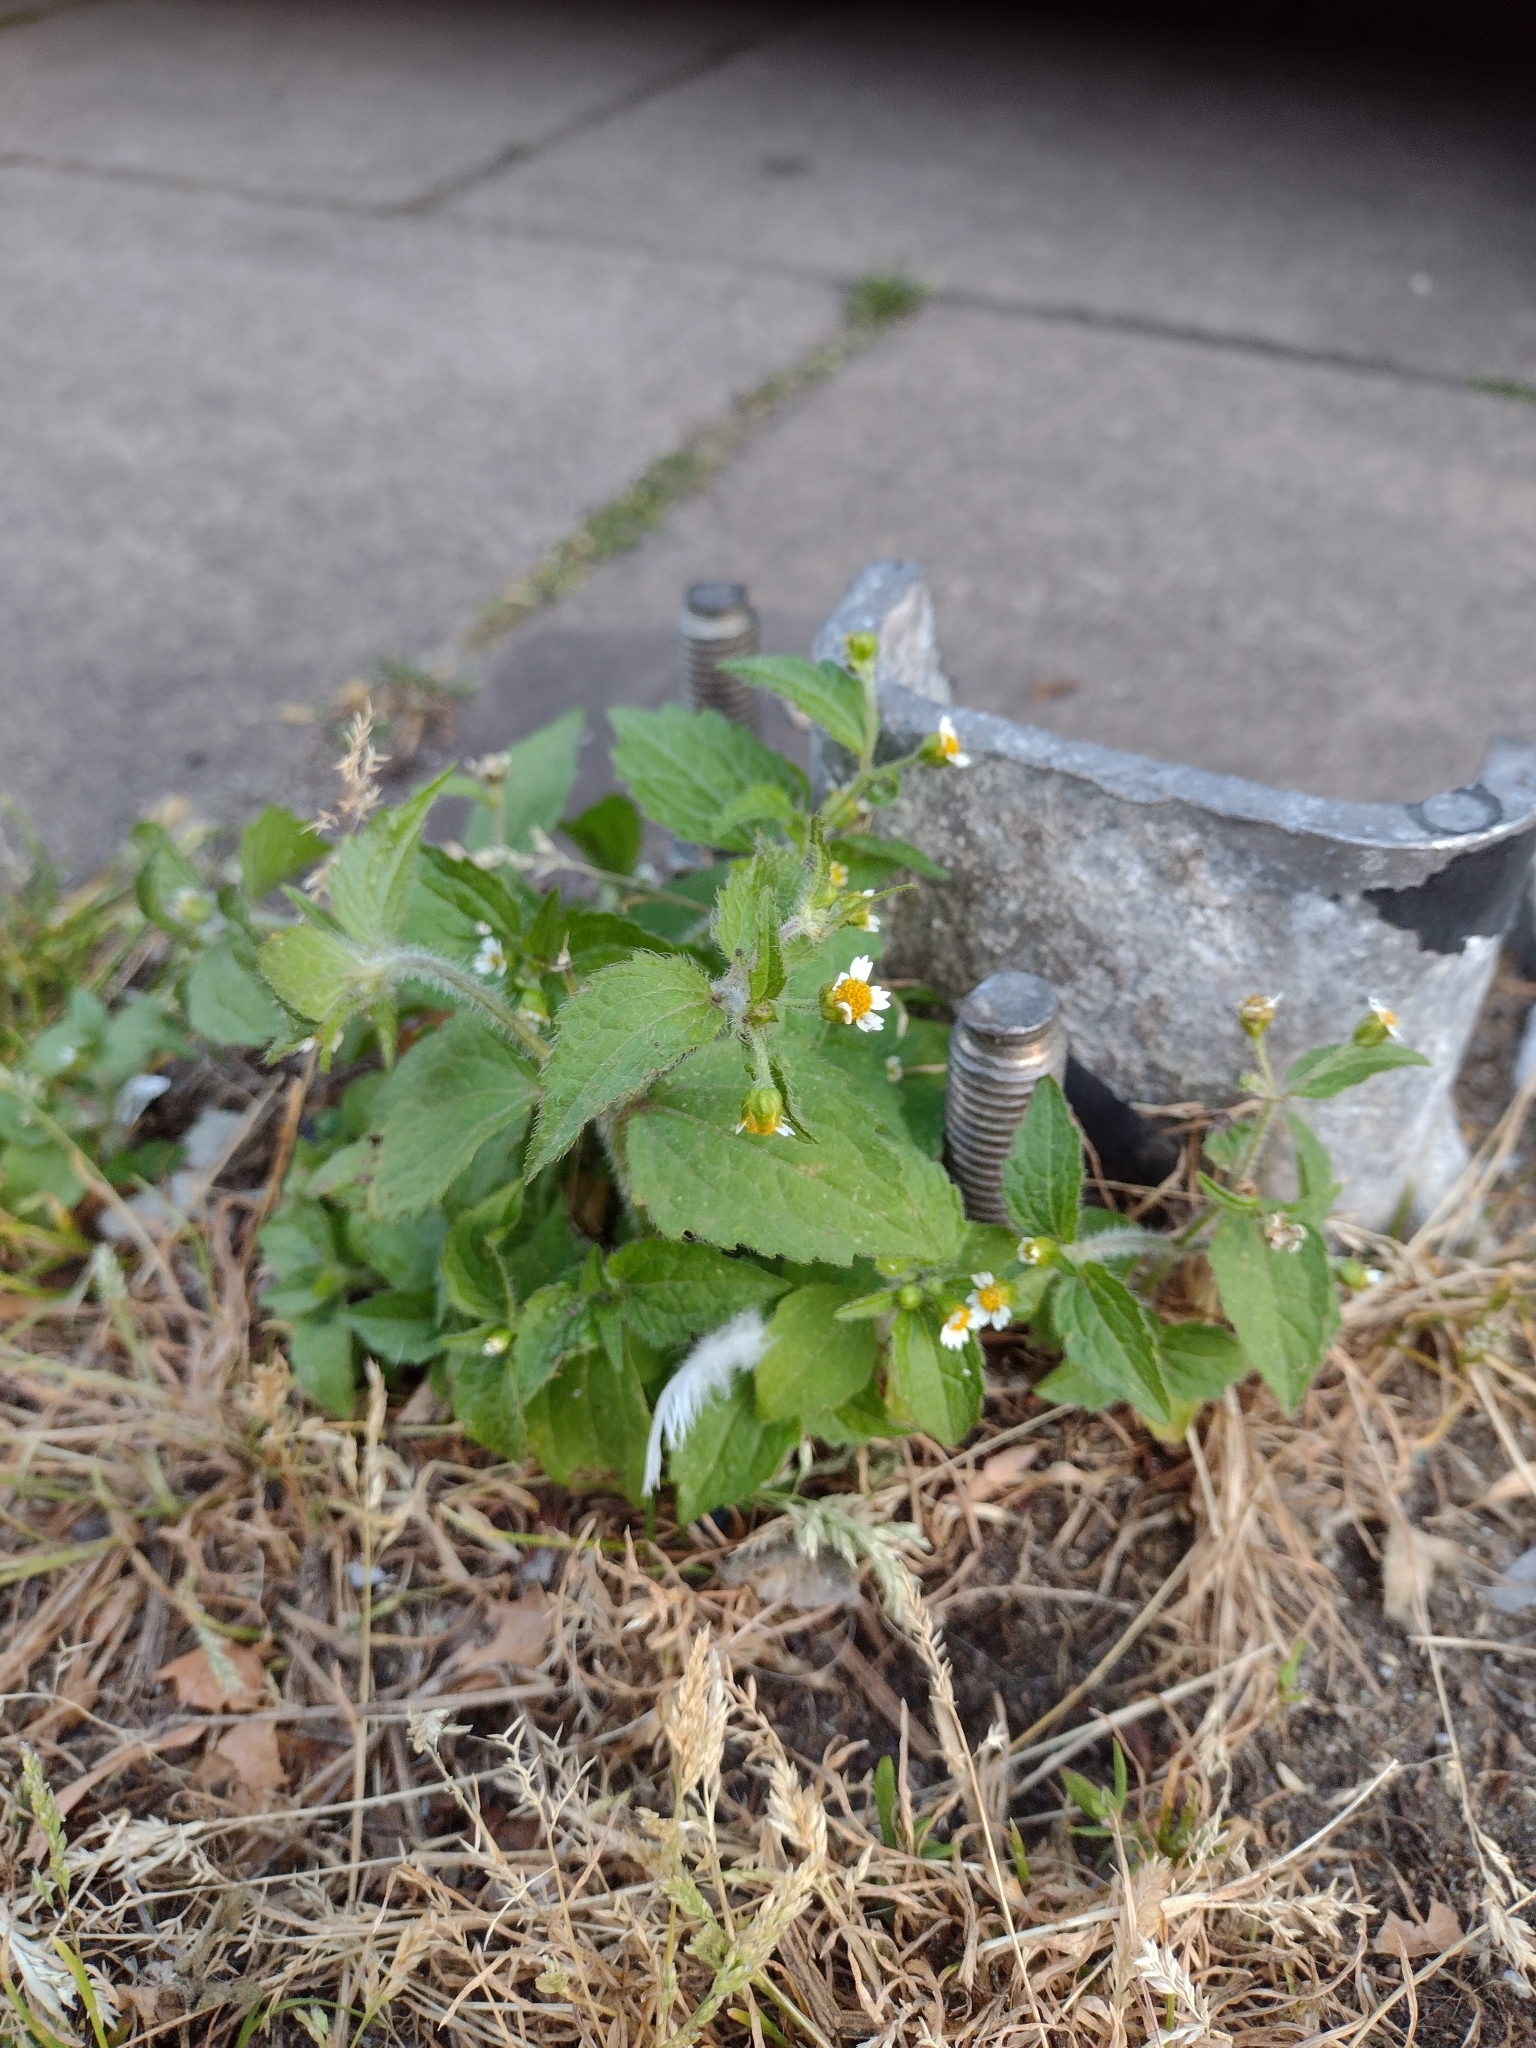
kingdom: Plantae
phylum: Tracheophyta
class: Magnoliopsida
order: Asterales
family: Asteraceae
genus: Galinsoga
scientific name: Galinsoga quadriradiata
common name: Shaggy soldier
